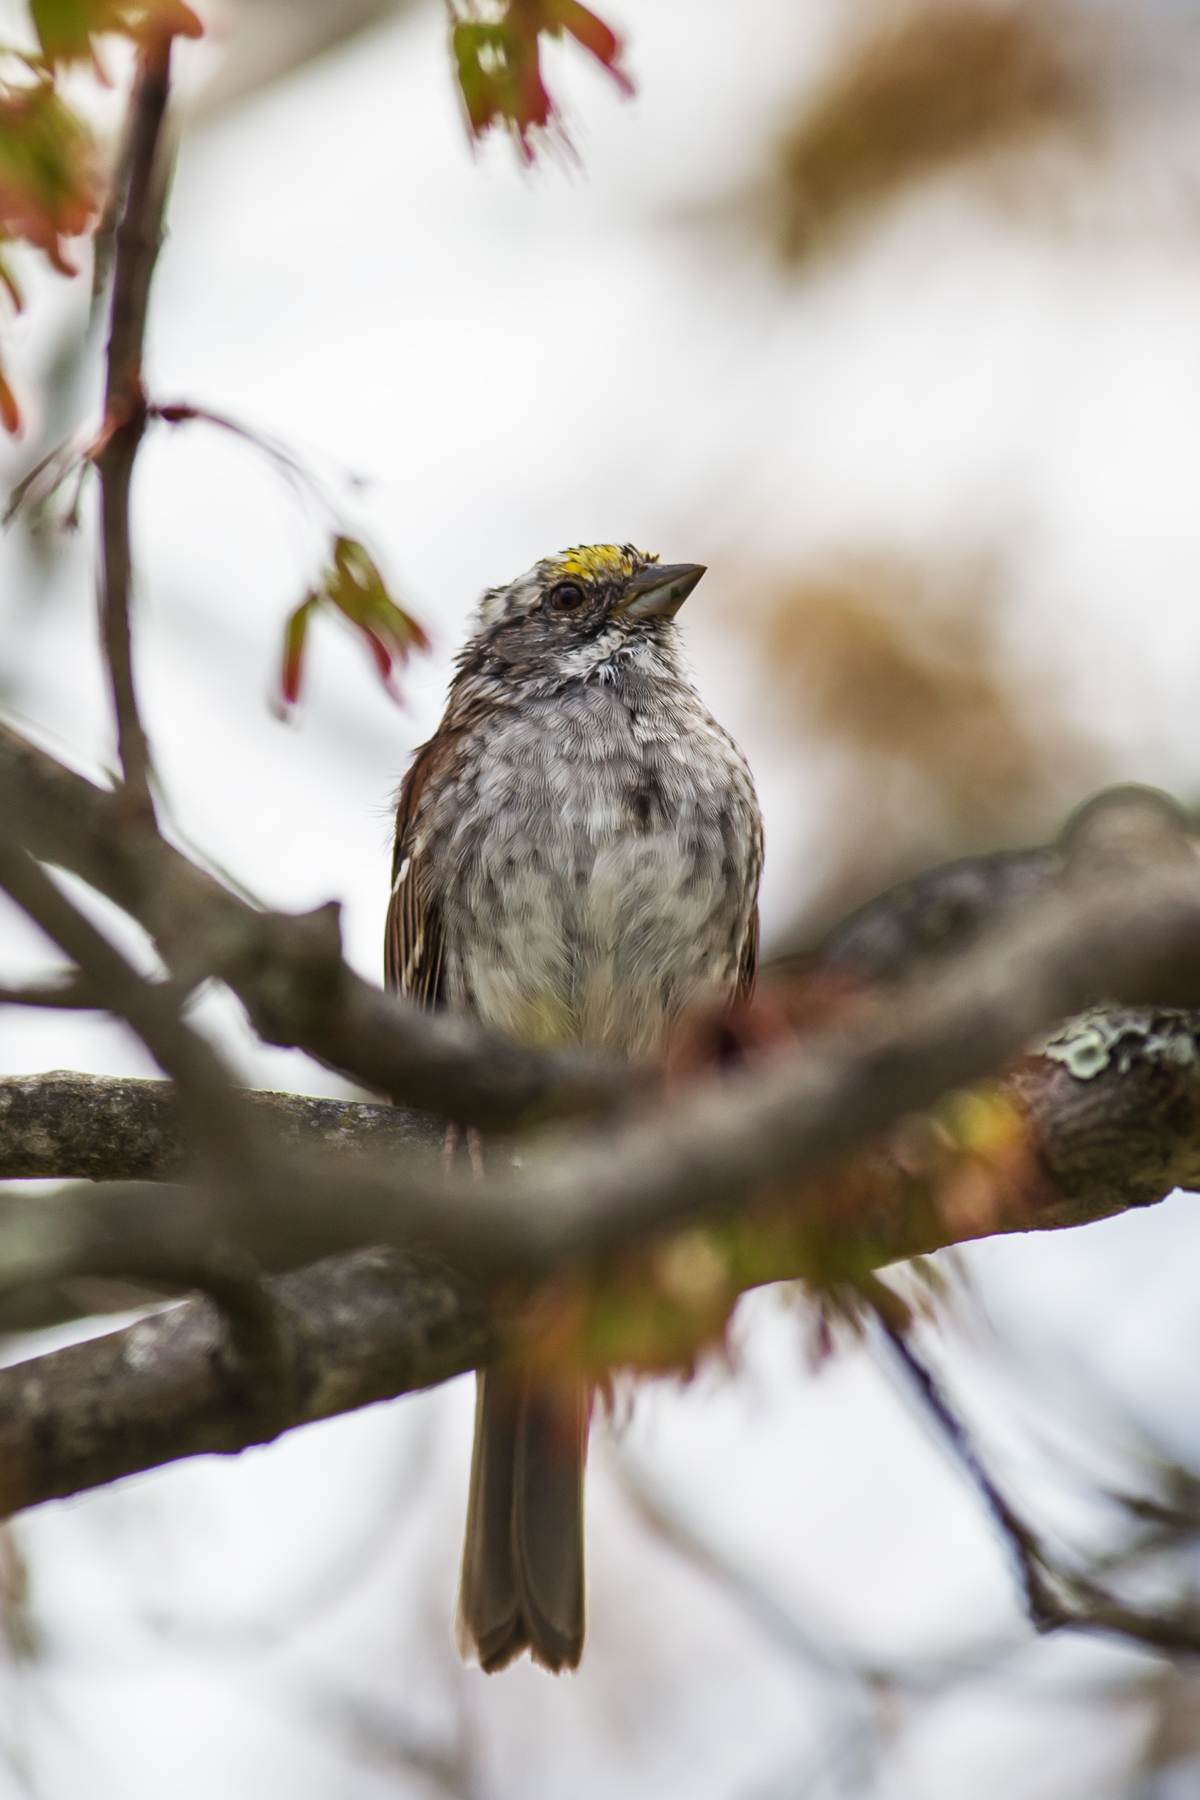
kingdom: Animalia
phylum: Chordata
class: Aves
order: Passeriformes
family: Passerellidae
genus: Zonotrichia
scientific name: Zonotrichia albicollis
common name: White-throated sparrow
